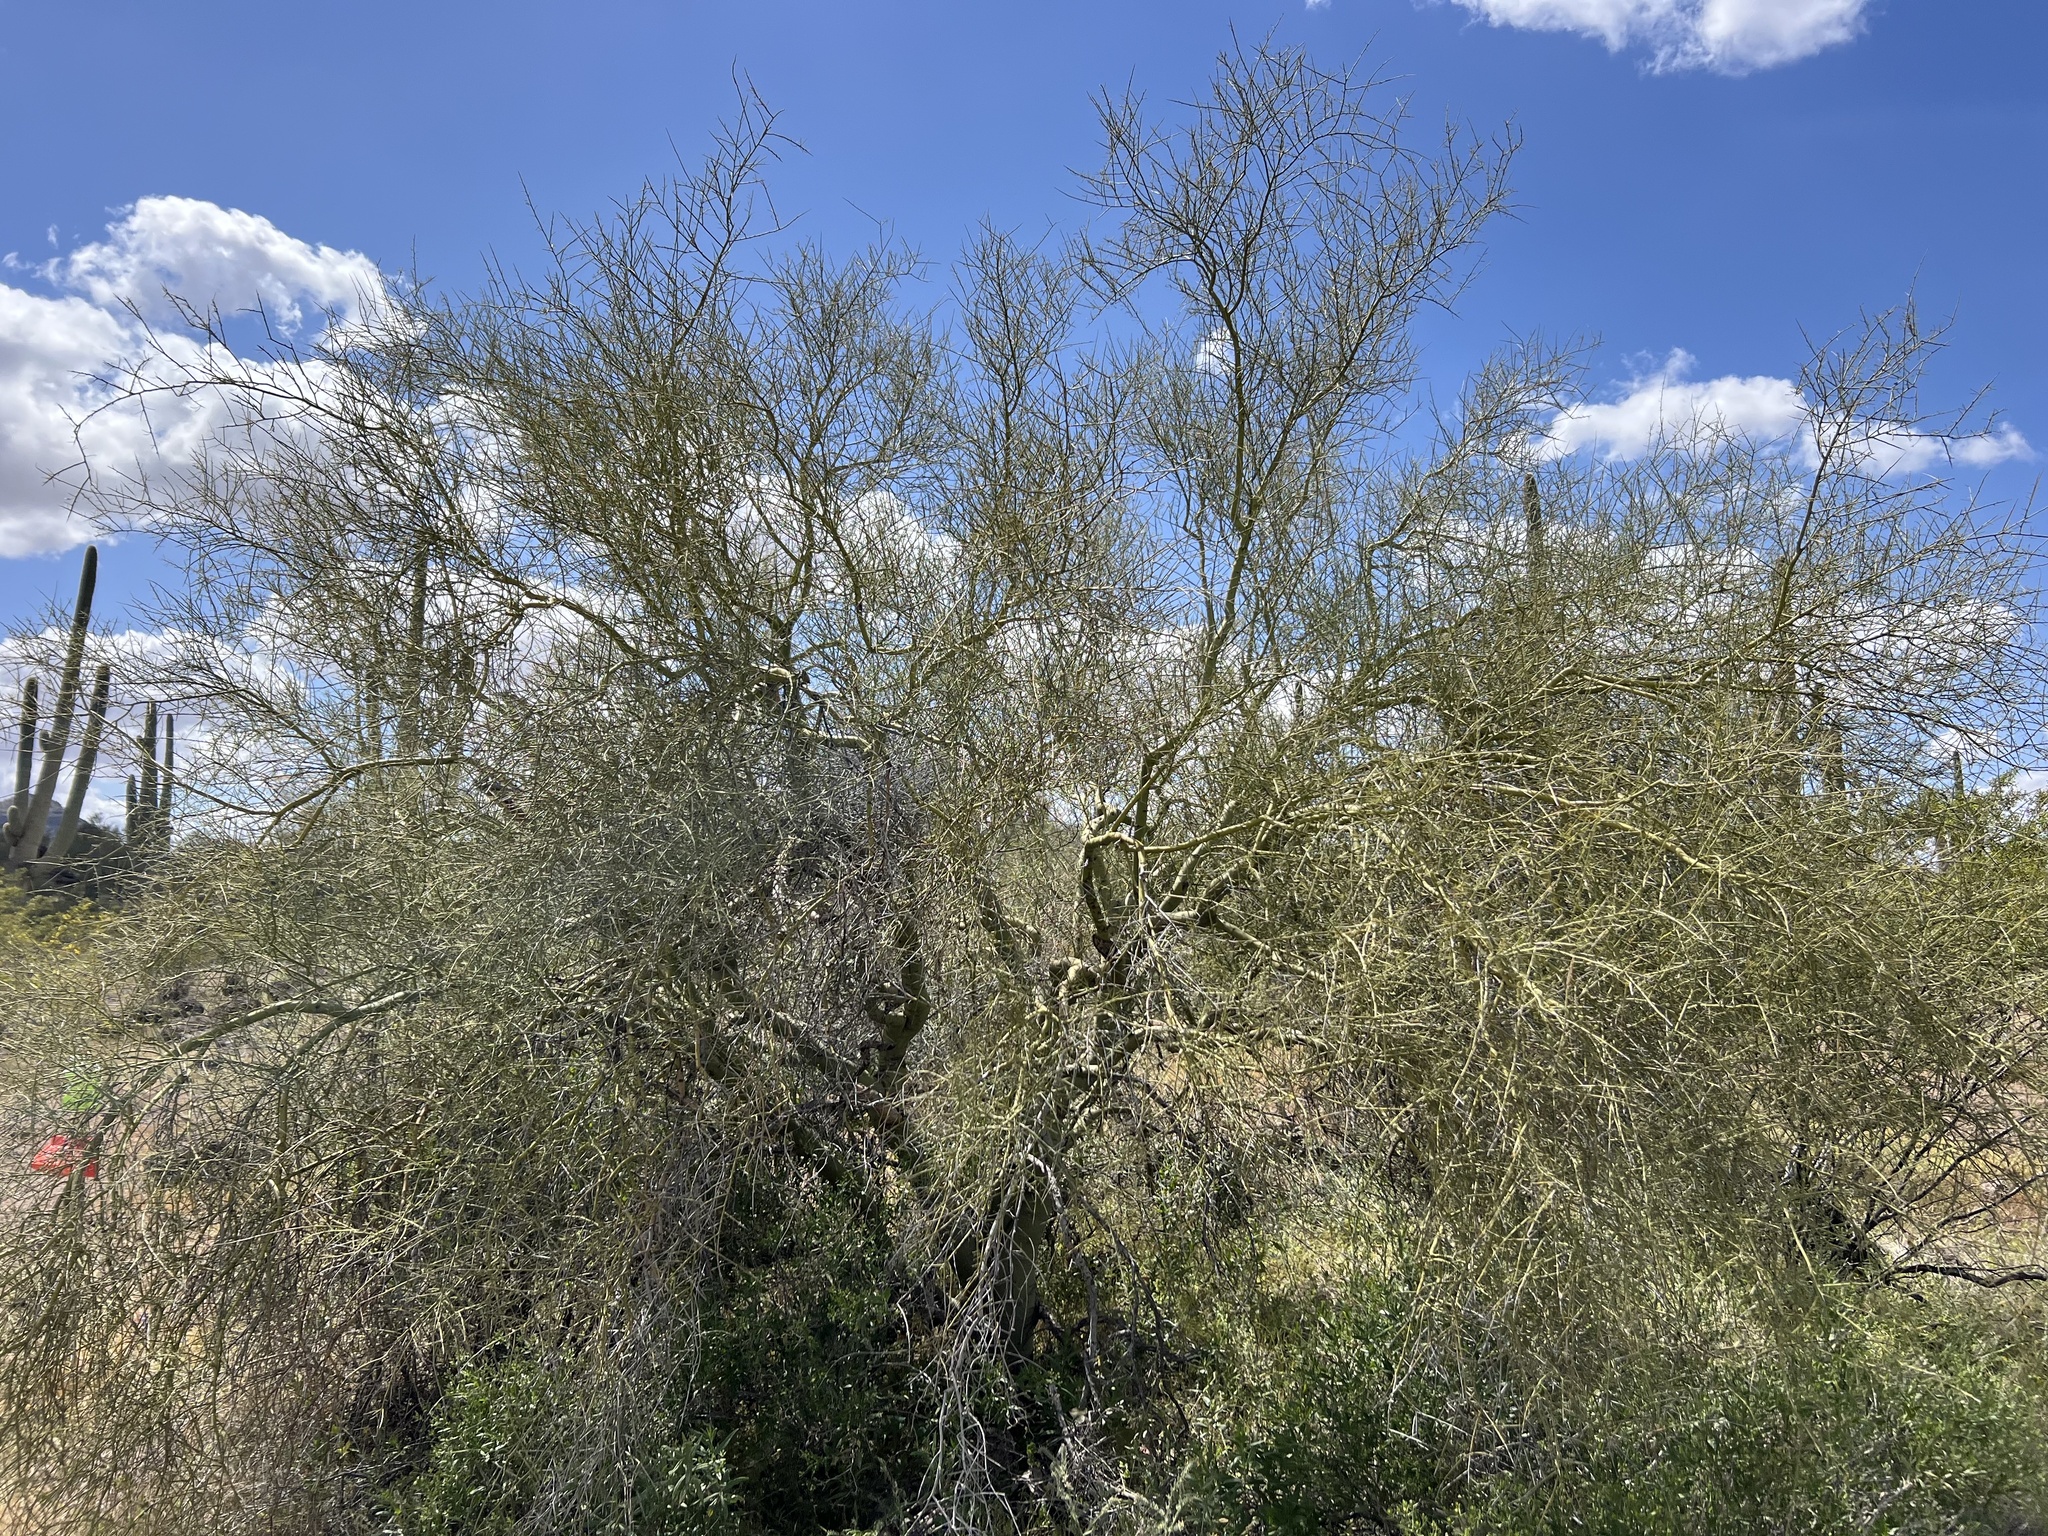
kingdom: Plantae
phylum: Tracheophyta
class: Magnoliopsida
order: Fabales
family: Fabaceae
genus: Parkinsonia
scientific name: Parkinsonia microphylla
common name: Yellow paloverde
